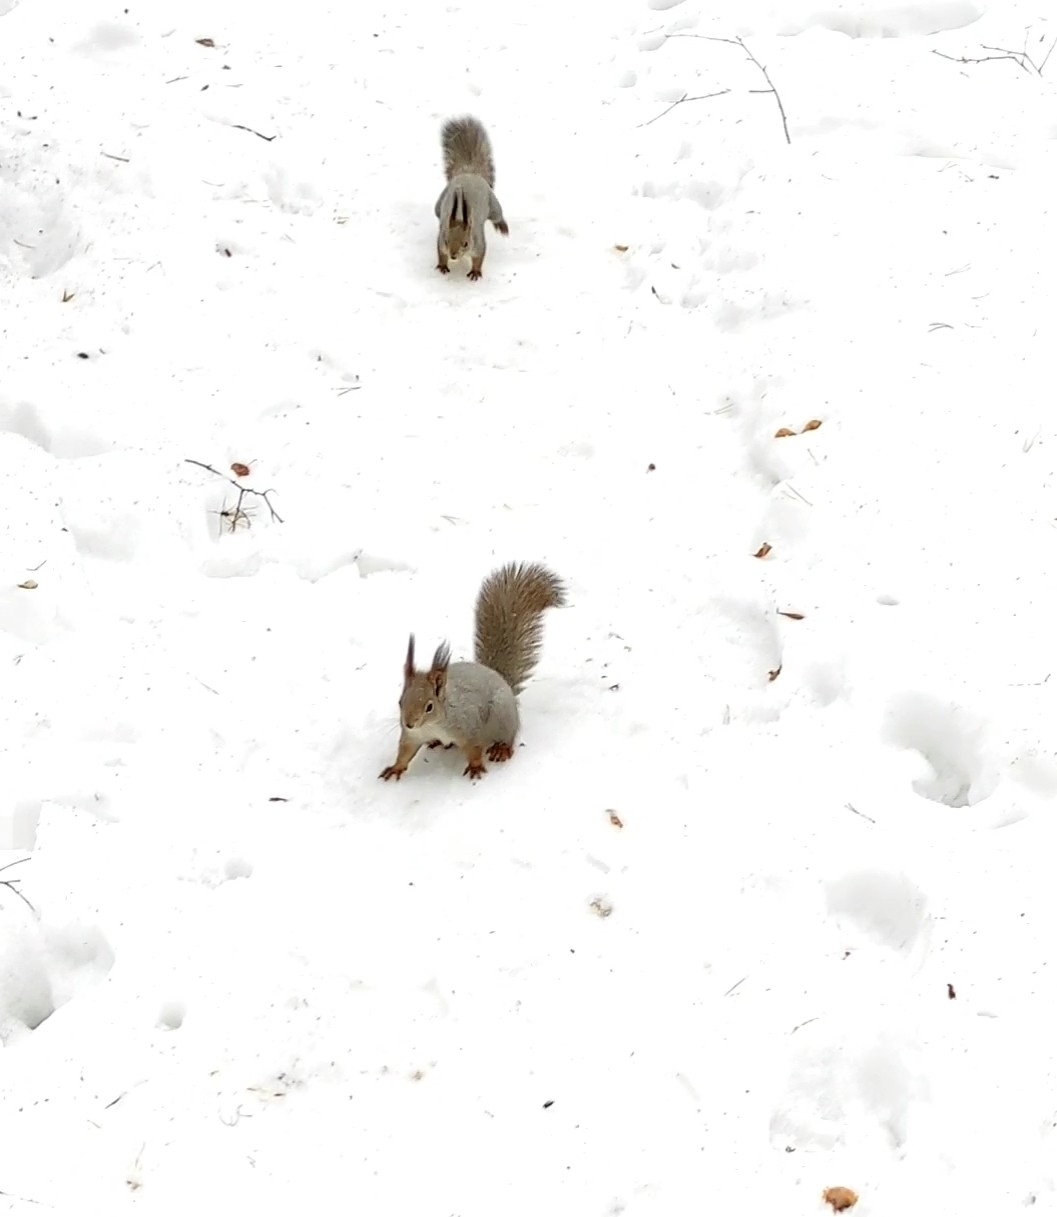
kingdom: Animalia
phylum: Chordata
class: Mammalia
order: Rodentia
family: Sciuridae
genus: Sciurus
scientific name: Sciurus vulgaris
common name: Eurasian red squirrel
